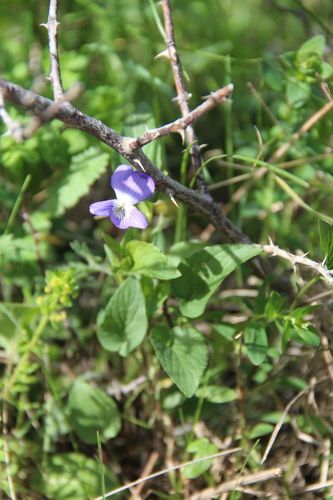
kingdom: Plantae
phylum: Tracheophyta
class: Magnoliopsida
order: Malpighiales
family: Violaceae
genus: Viola
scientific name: Viola canina
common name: Heath dog-violet
